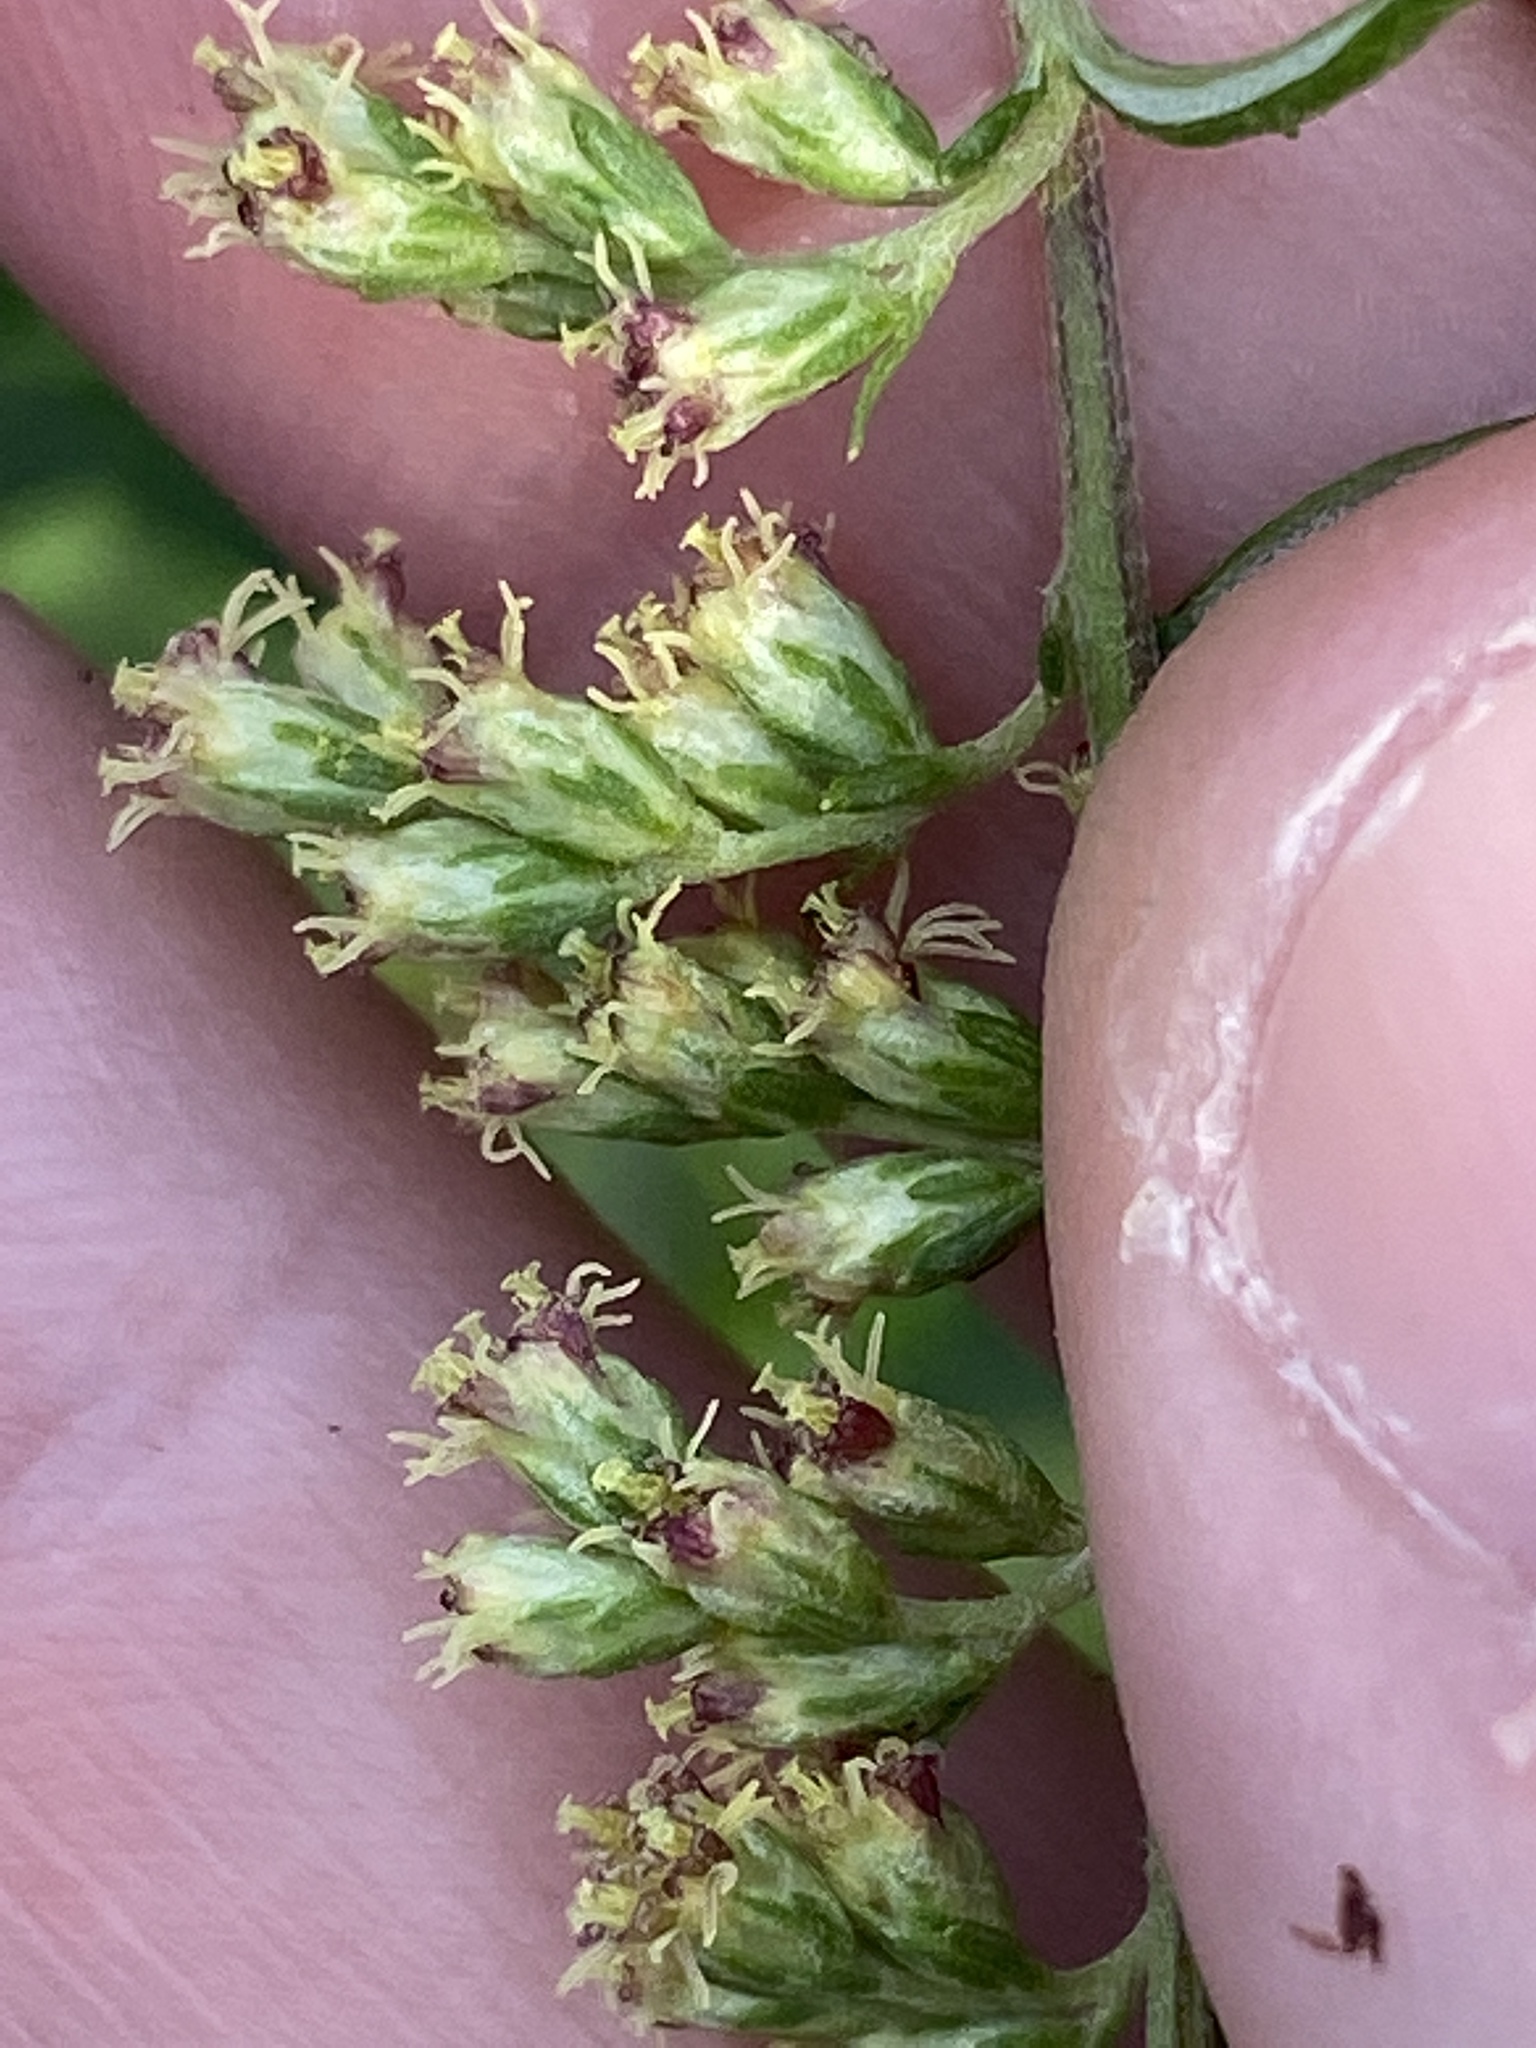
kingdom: Plantae
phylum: Tracheophyta
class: Magnoliopsida
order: Asterales
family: Asteraceae
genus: Artemisia
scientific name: Artemisia vulgaris
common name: Mugwort
